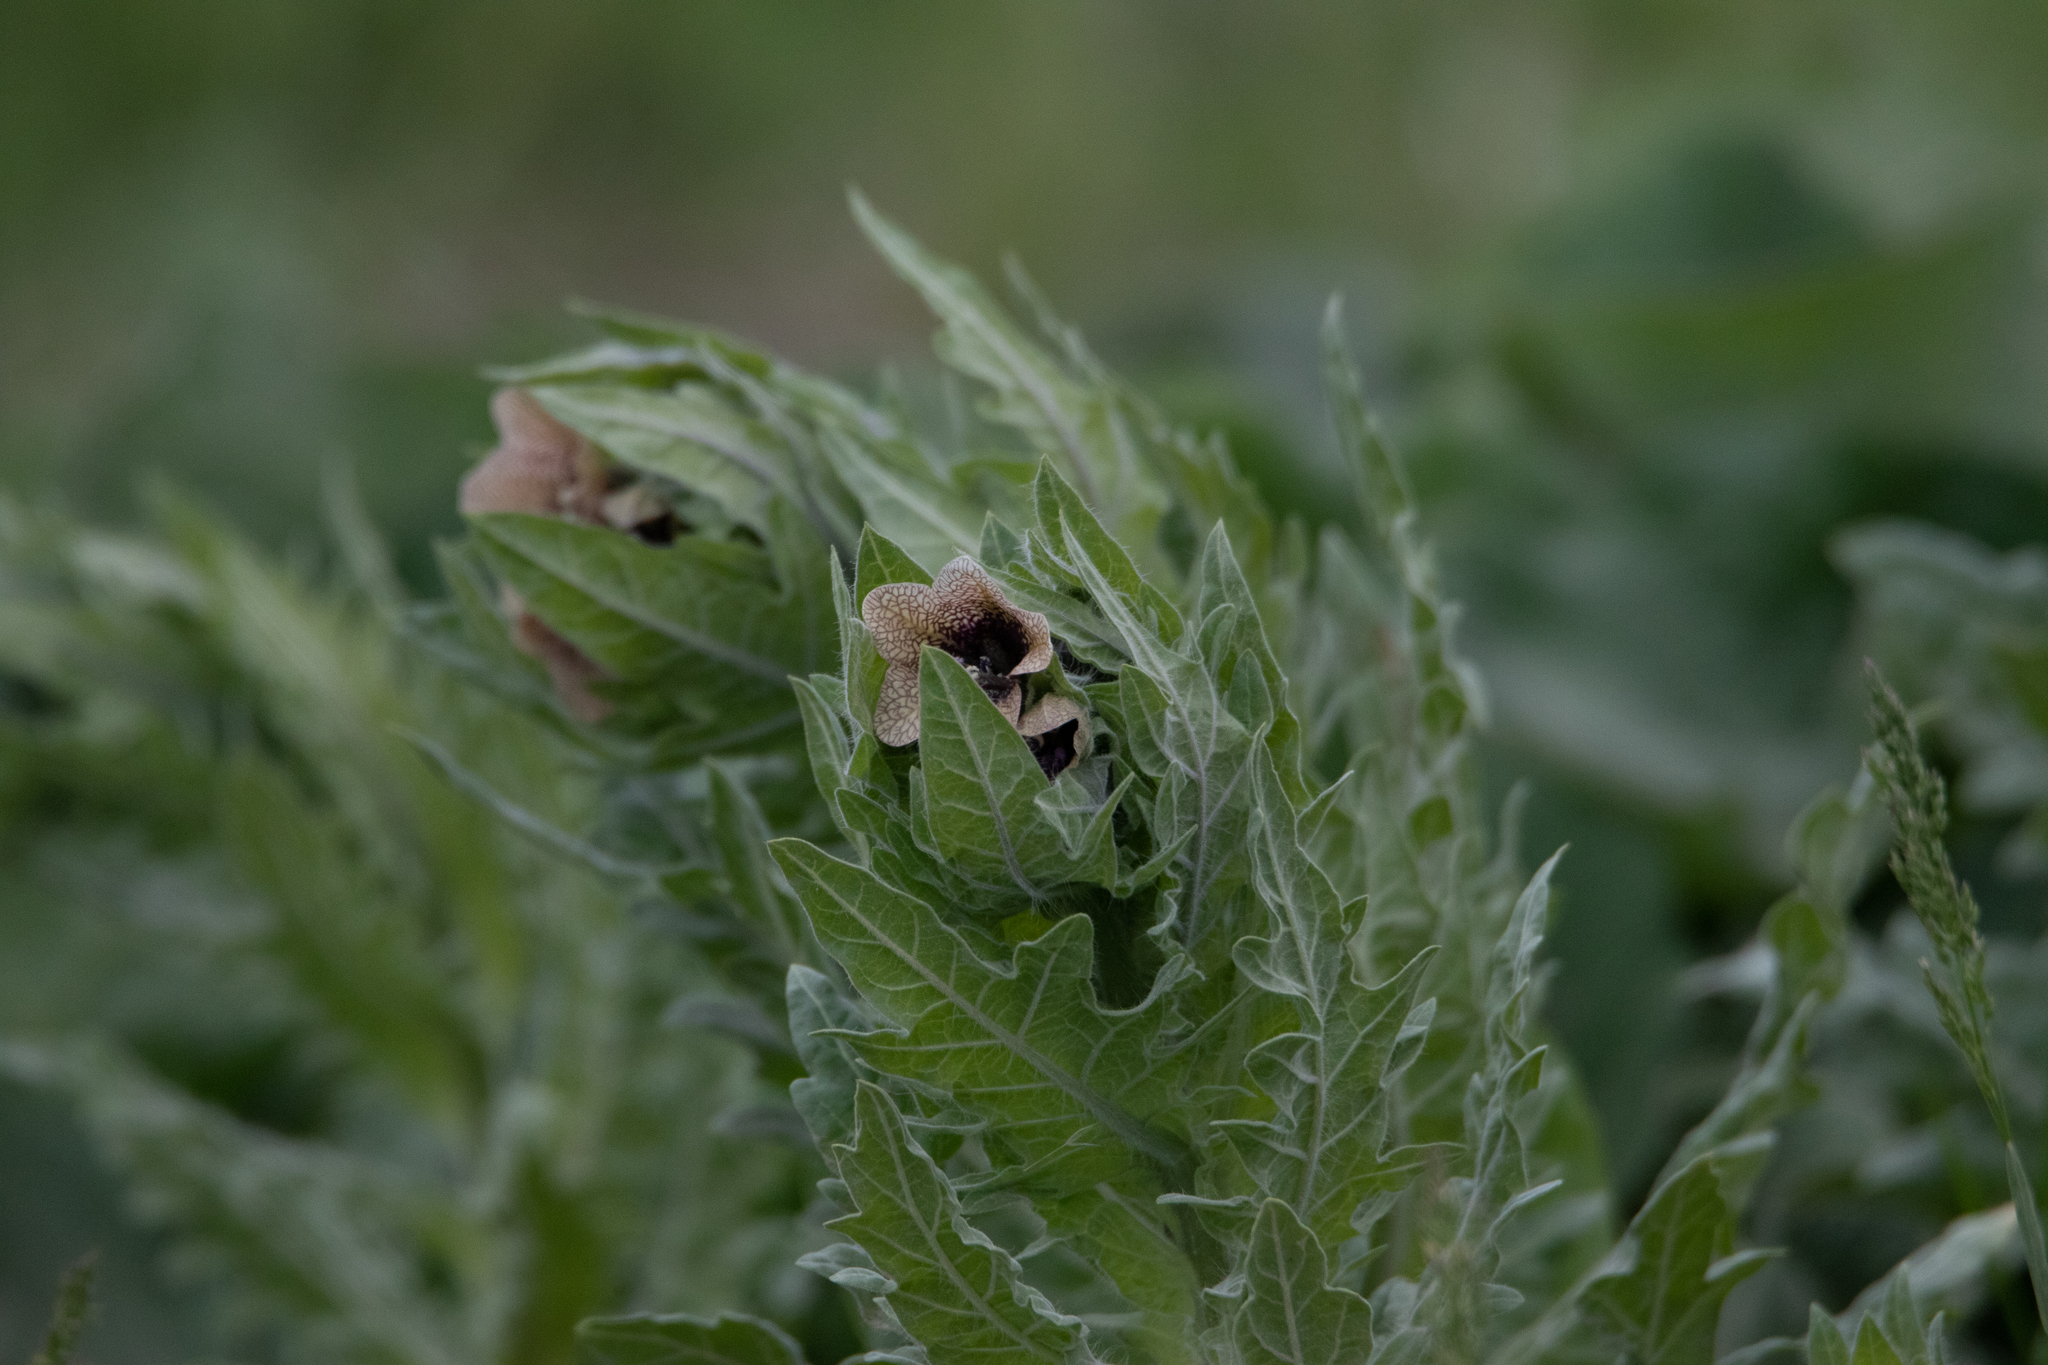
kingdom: Plantae
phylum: Tracheophyta
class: Magnoliopsida
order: Solanales
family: Solanaceae
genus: Hyoscyamus
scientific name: Hyoscyamus niger
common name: Henbane
